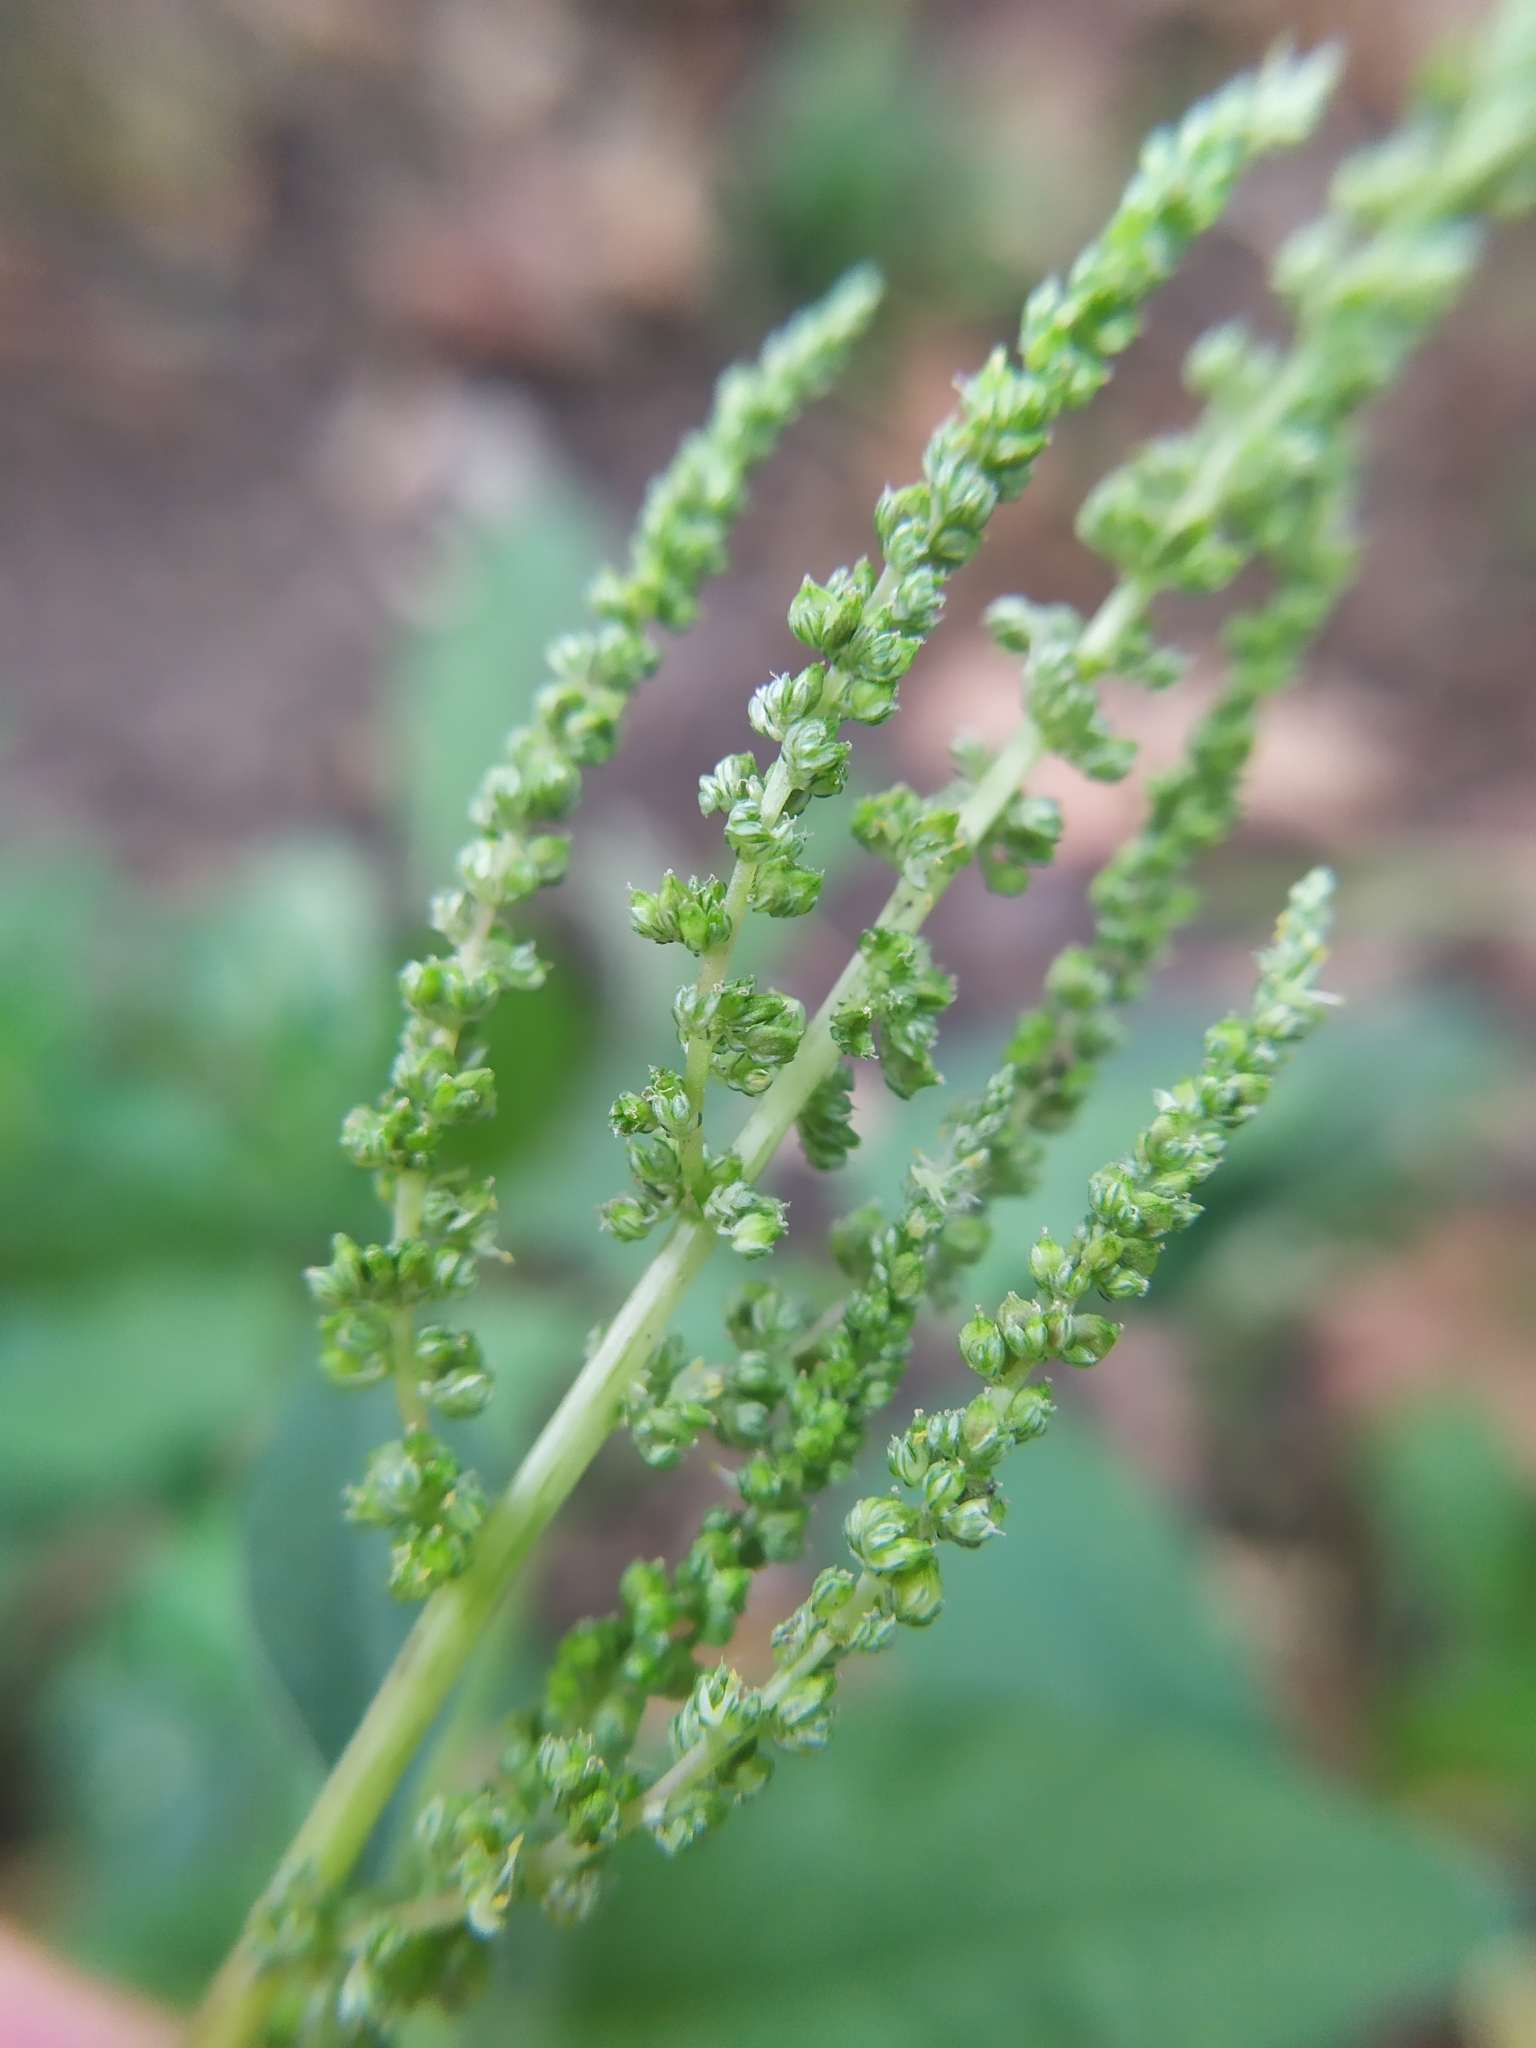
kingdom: Plantae
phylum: Tracheophyta
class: Magnoliopsida
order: Caryophyllales
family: Amaranthaceae
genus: Amaranthus
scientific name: Amaranthus viridis
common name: Slender amaranth
